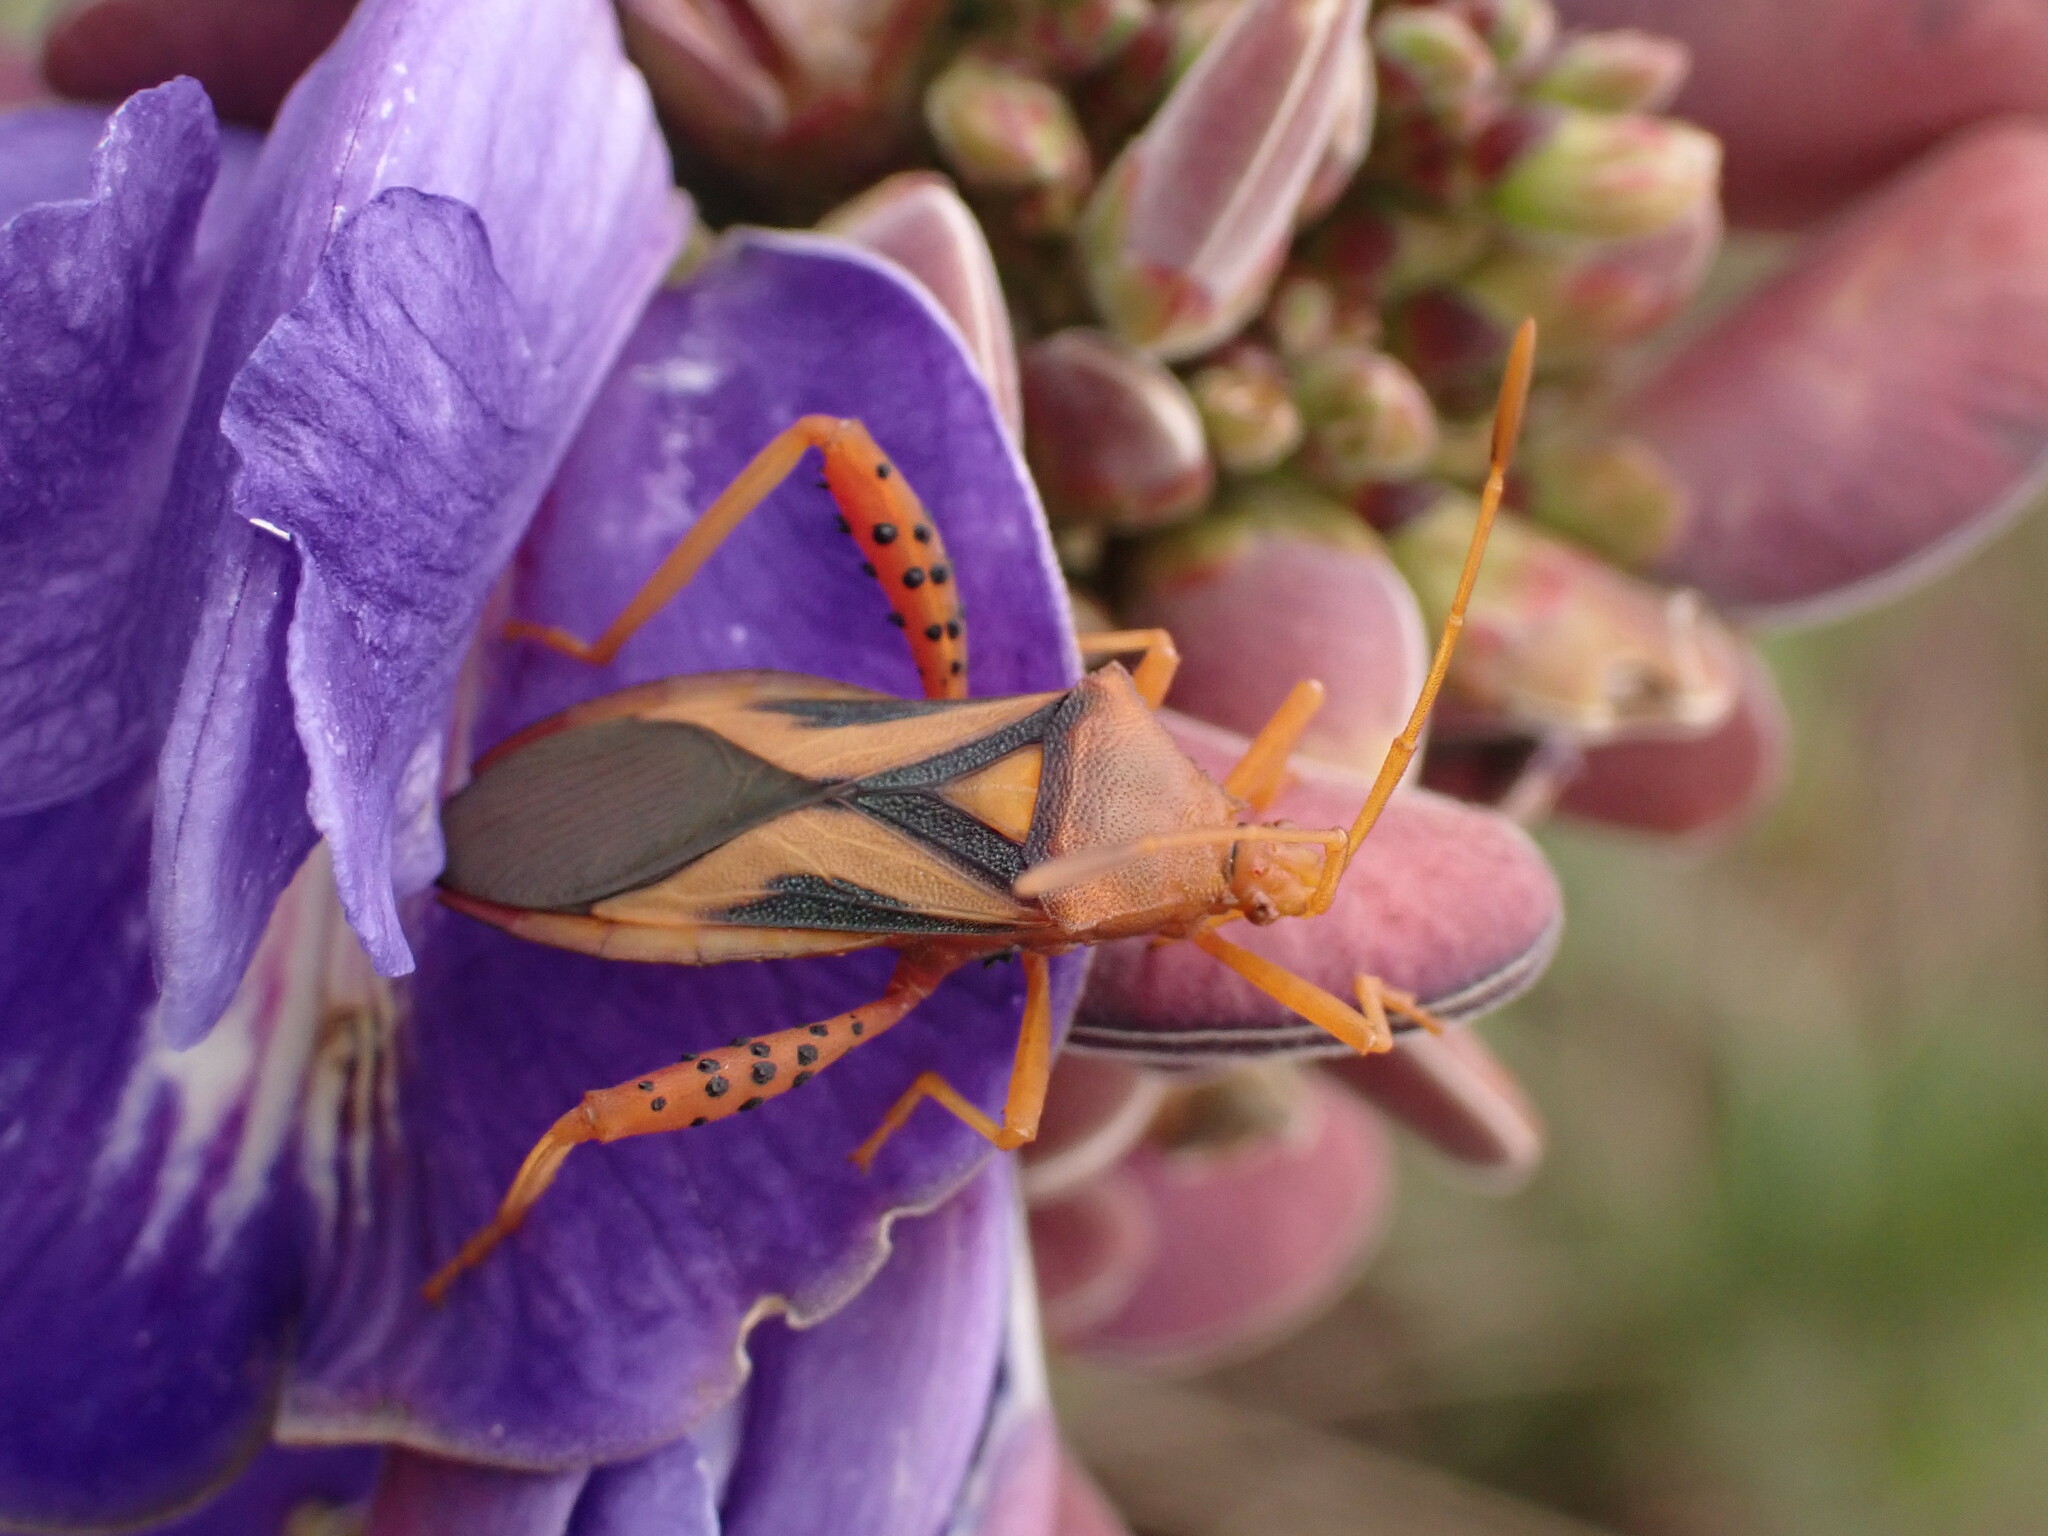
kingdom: Animalia
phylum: Arthropoda
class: Insecta
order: Hemiptera
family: Coreidae
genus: Crinocerus
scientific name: Crinocerus sanctus
